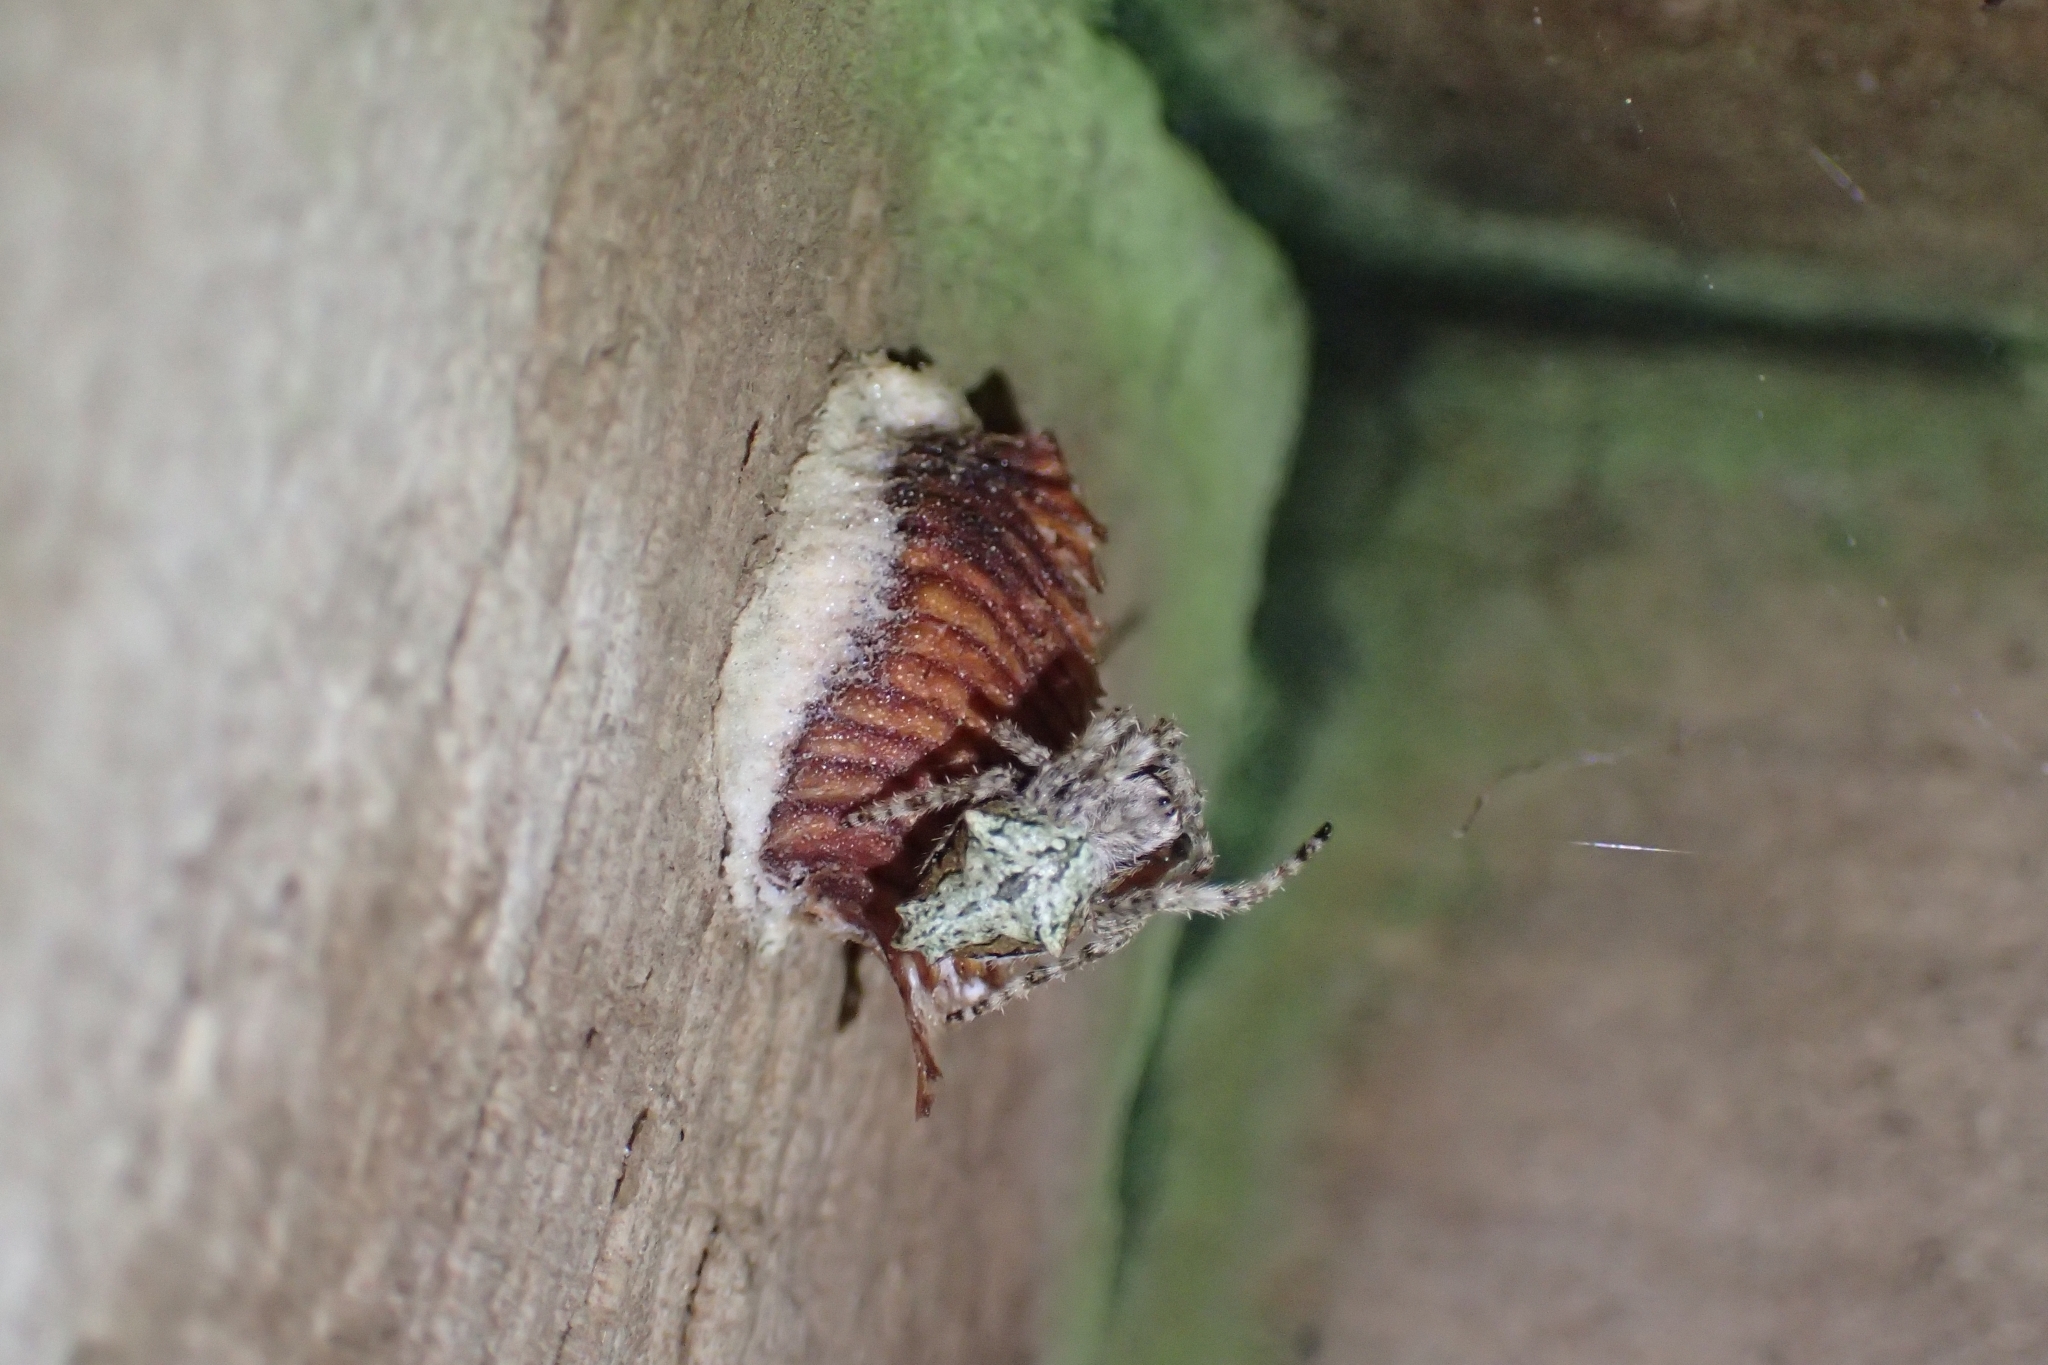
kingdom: Animalia
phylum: Arthropoda
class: Insecta
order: Mantodea
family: Miomantidae
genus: Miomantis
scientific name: Miomantis caffra
